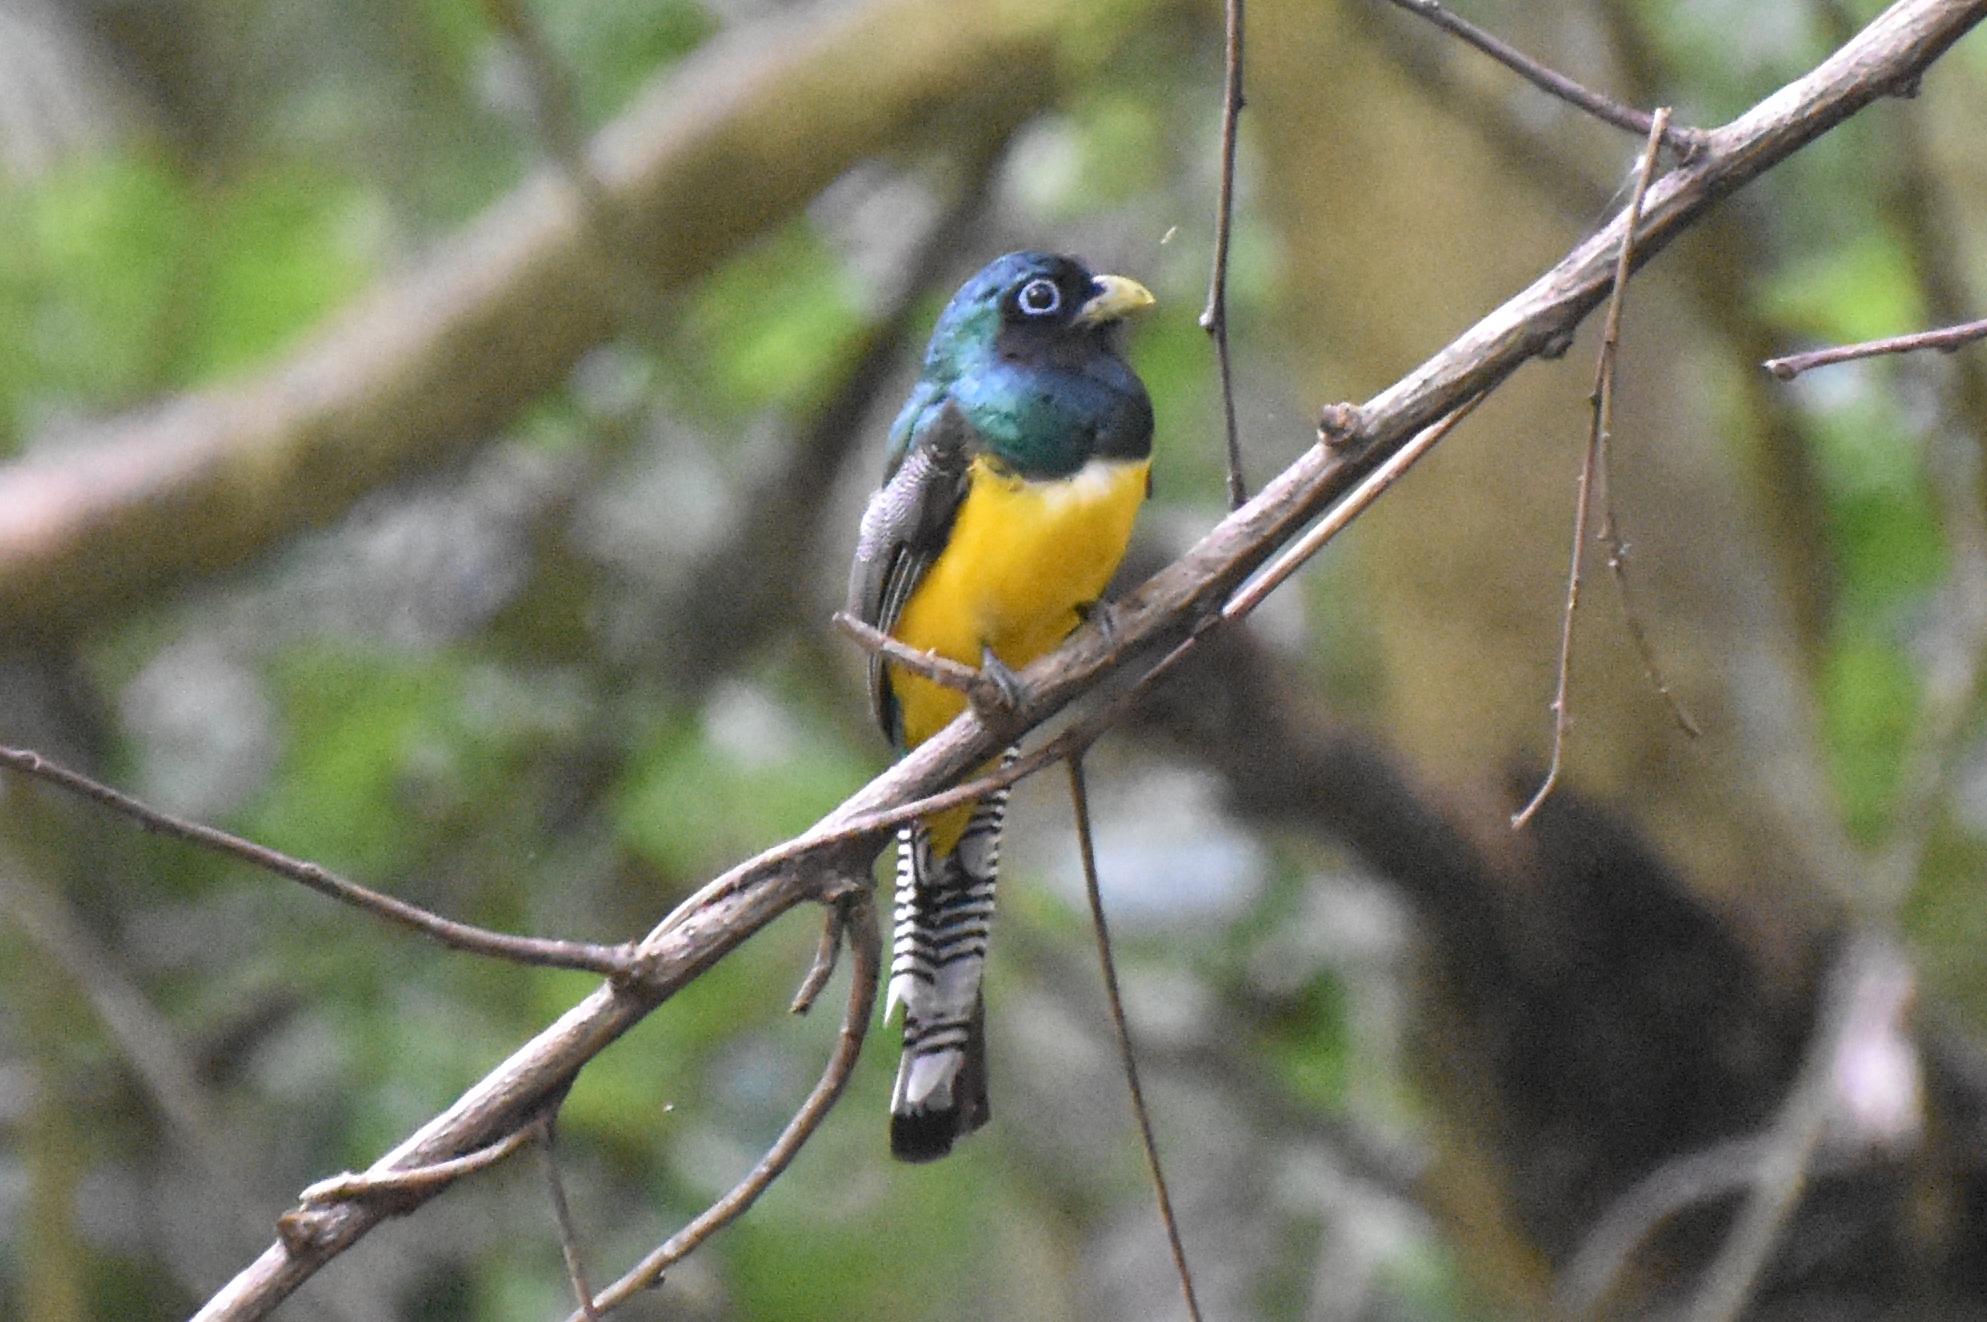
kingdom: Animalia
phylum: Chordata
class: Aves
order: Trogoniformes
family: Trogonidae
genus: Trogon
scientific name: Trogon rufus
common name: Black-throated trogon
